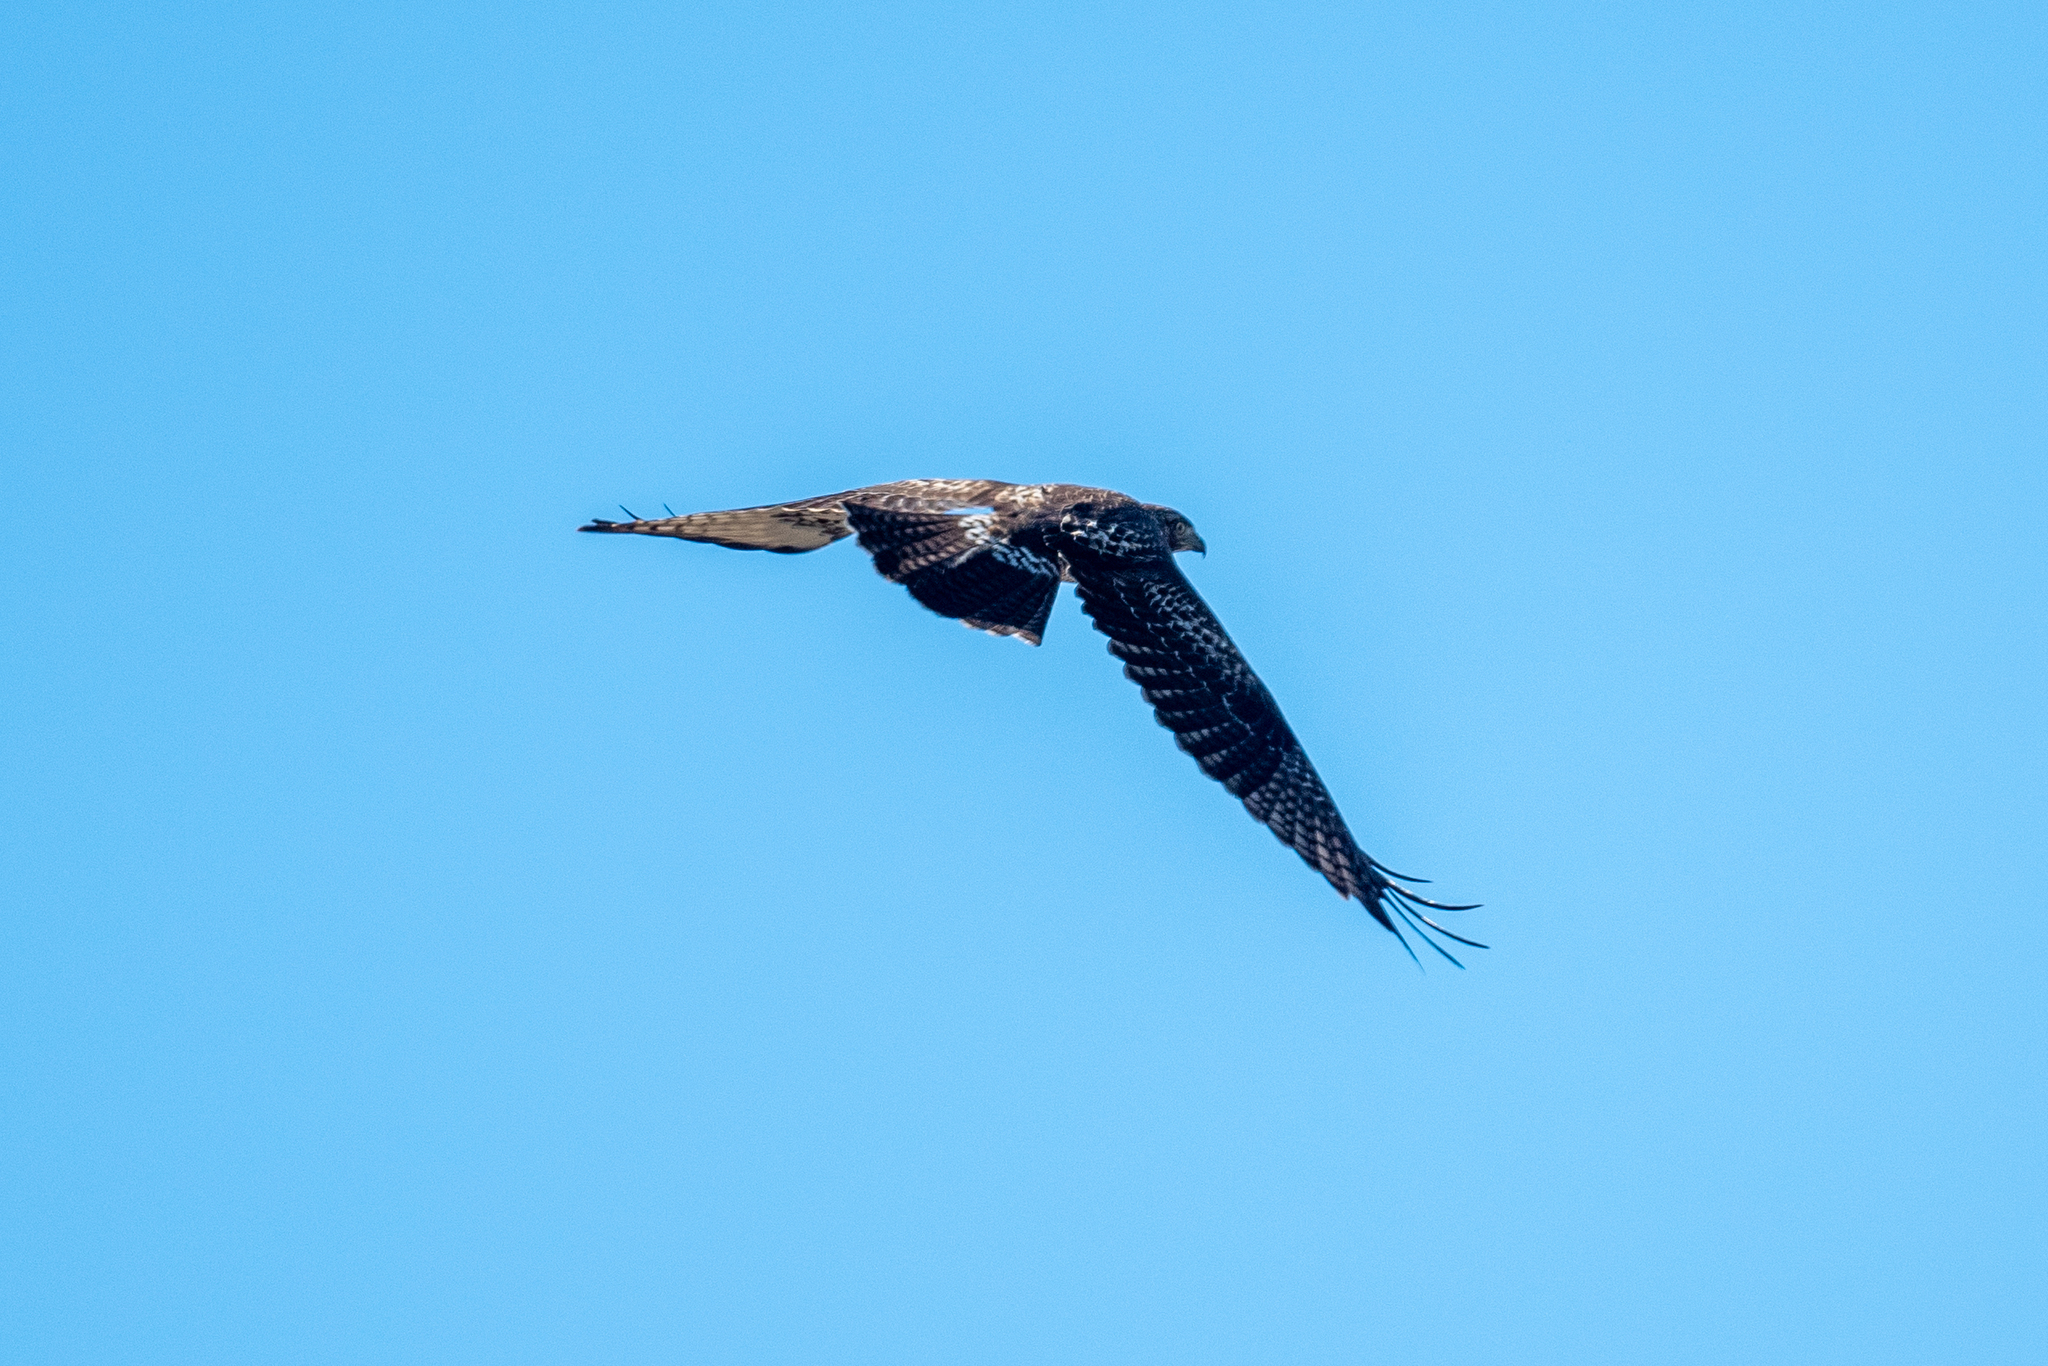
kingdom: Animalia
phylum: Chordata
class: Aves
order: Accipitriformes
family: Accipitridae
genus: Buteo
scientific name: Buteo jamaicensis
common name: Red-tailed hawk
